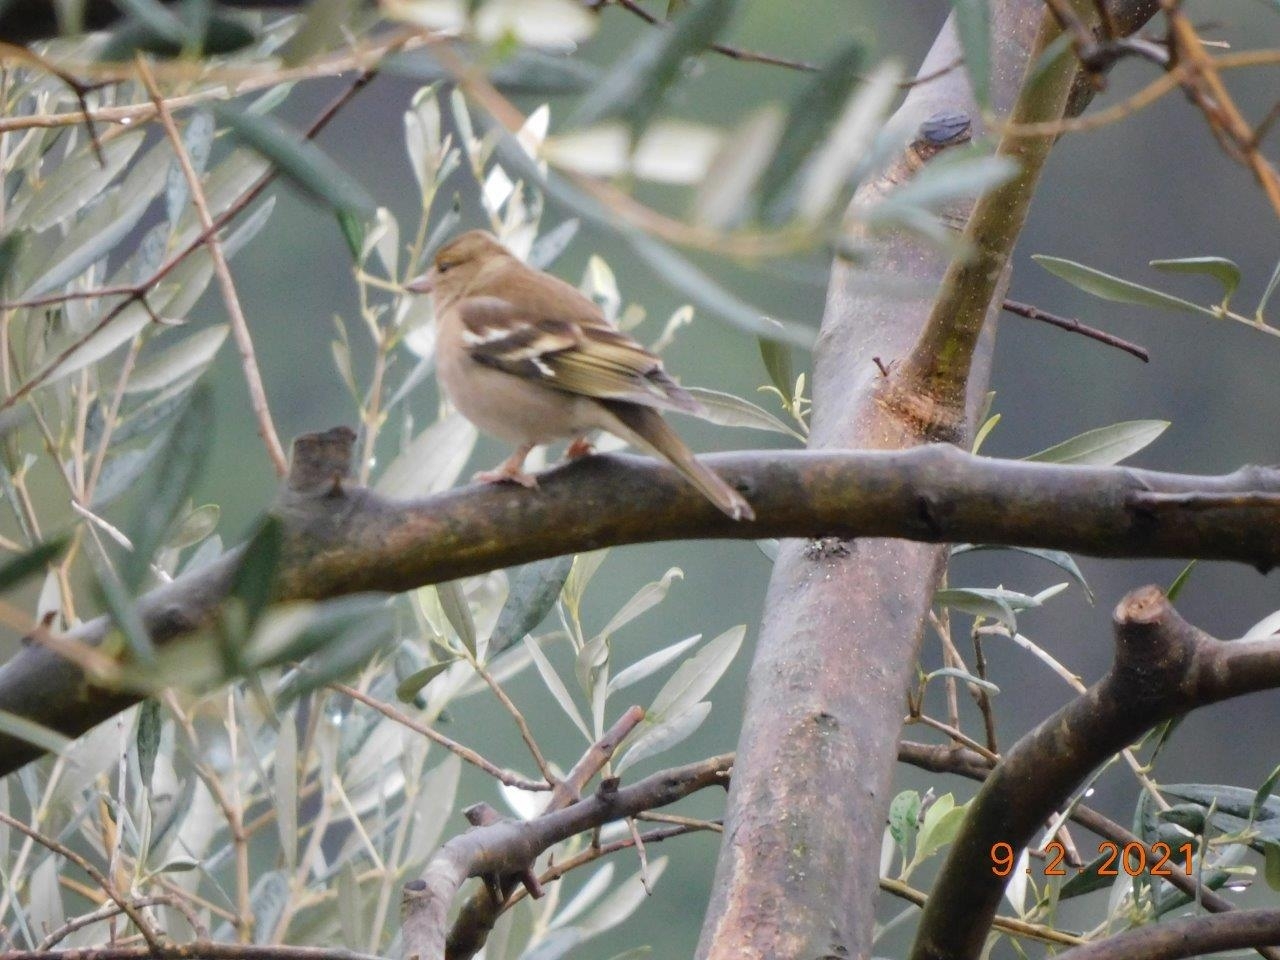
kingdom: Animalia
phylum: Chordata
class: Aves
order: Passeriformes
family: Fringillidae
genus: Fringilla
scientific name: Fringilla coelebs
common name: Common chaffinch
